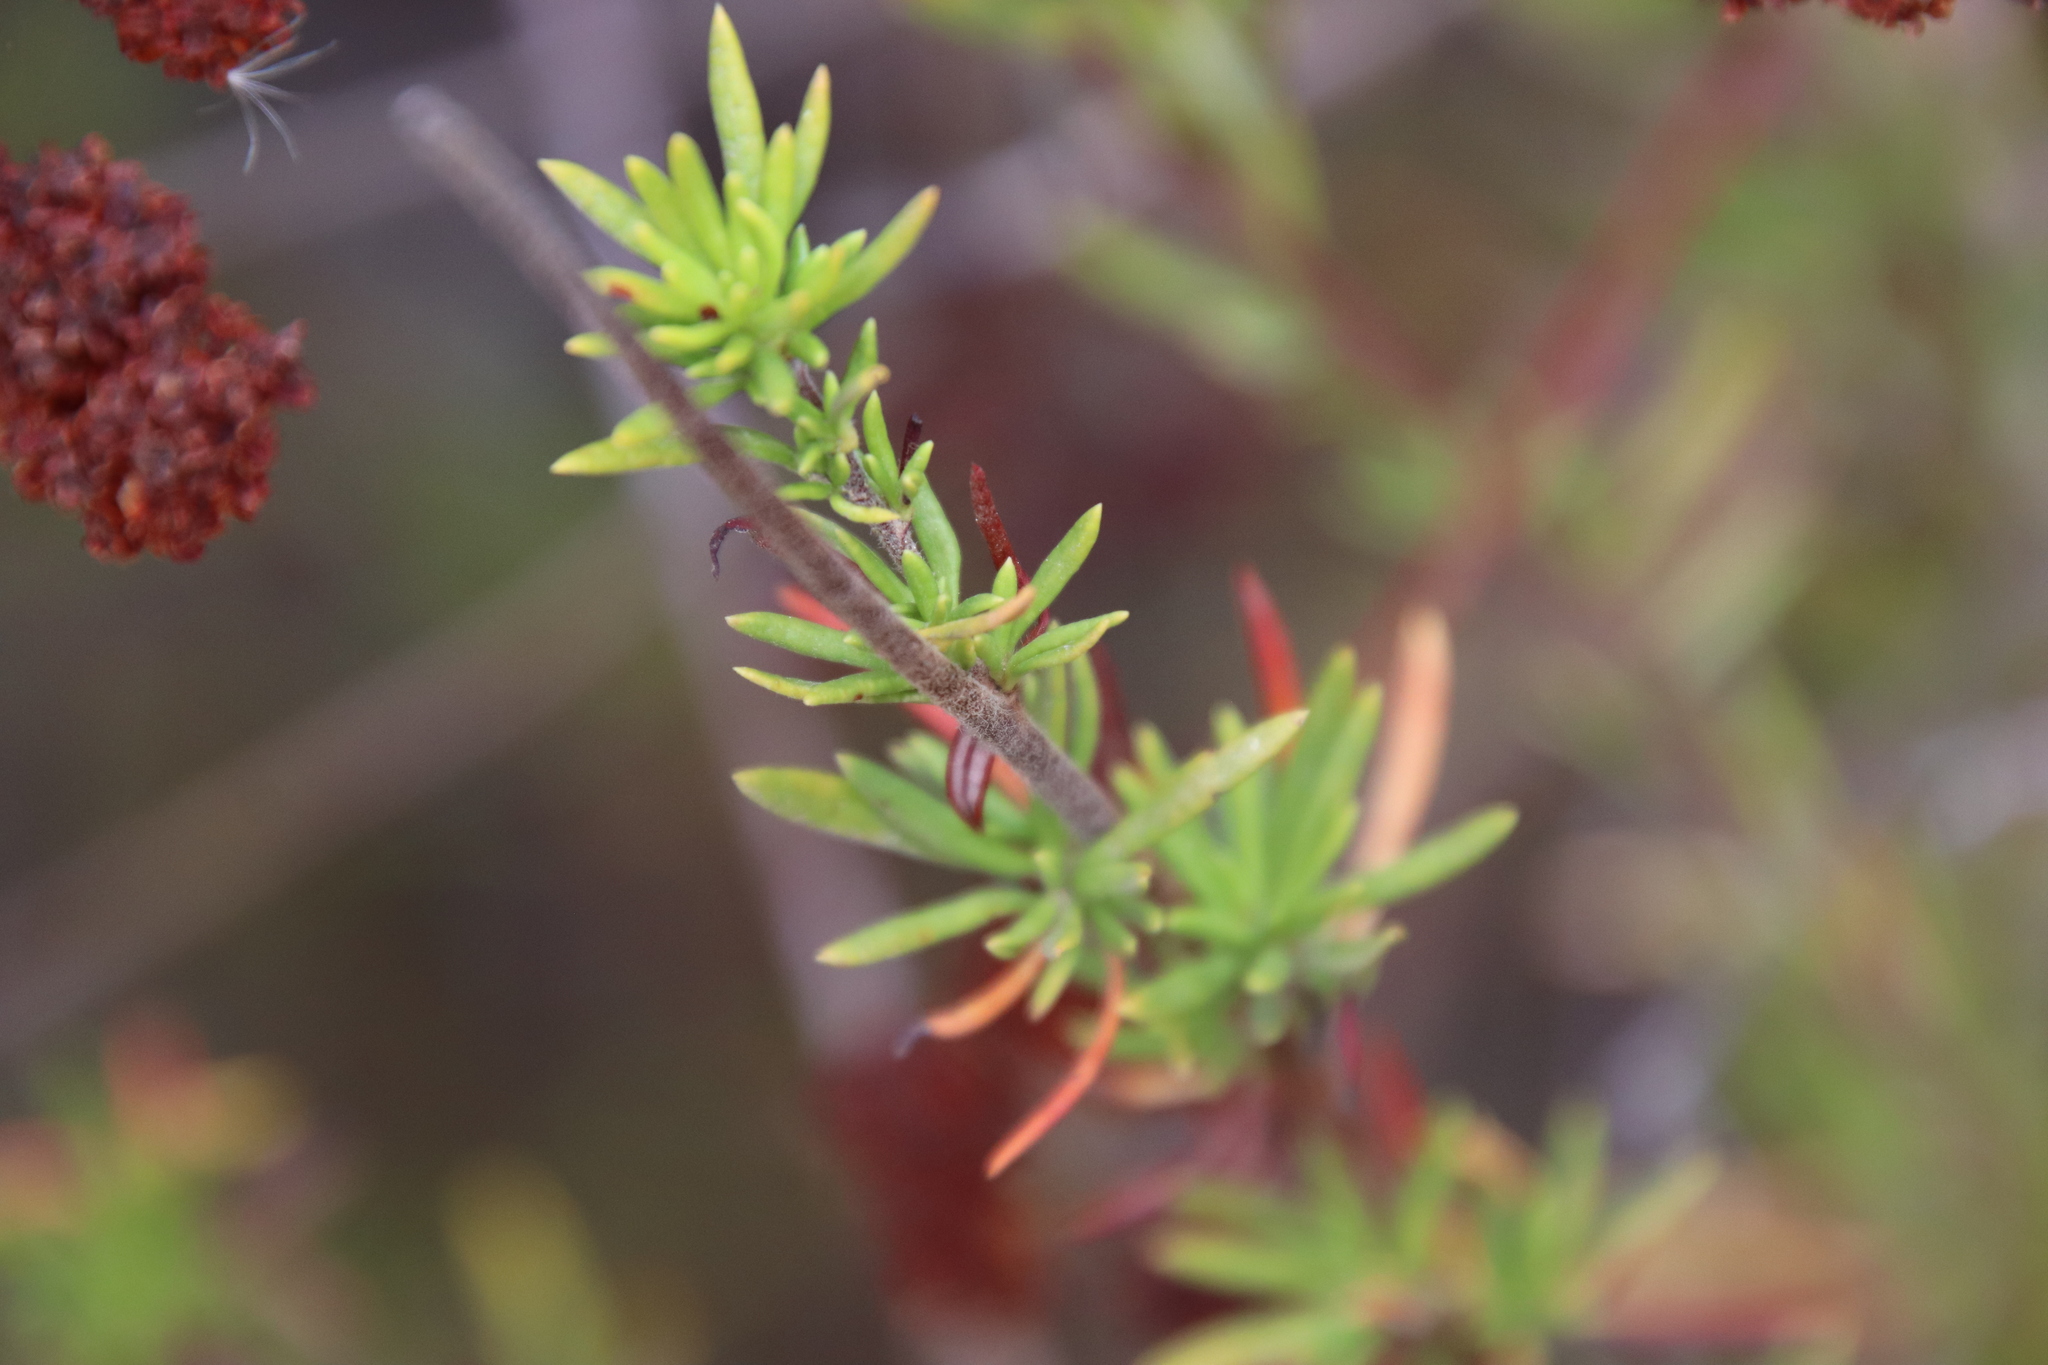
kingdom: Plantae
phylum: Tracheophyta
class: Magnoliopsida
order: Caryophyllales
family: Polygonaceae
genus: Eriogonum
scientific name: Eriogonum fasciculatum
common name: California wild buckwheat
